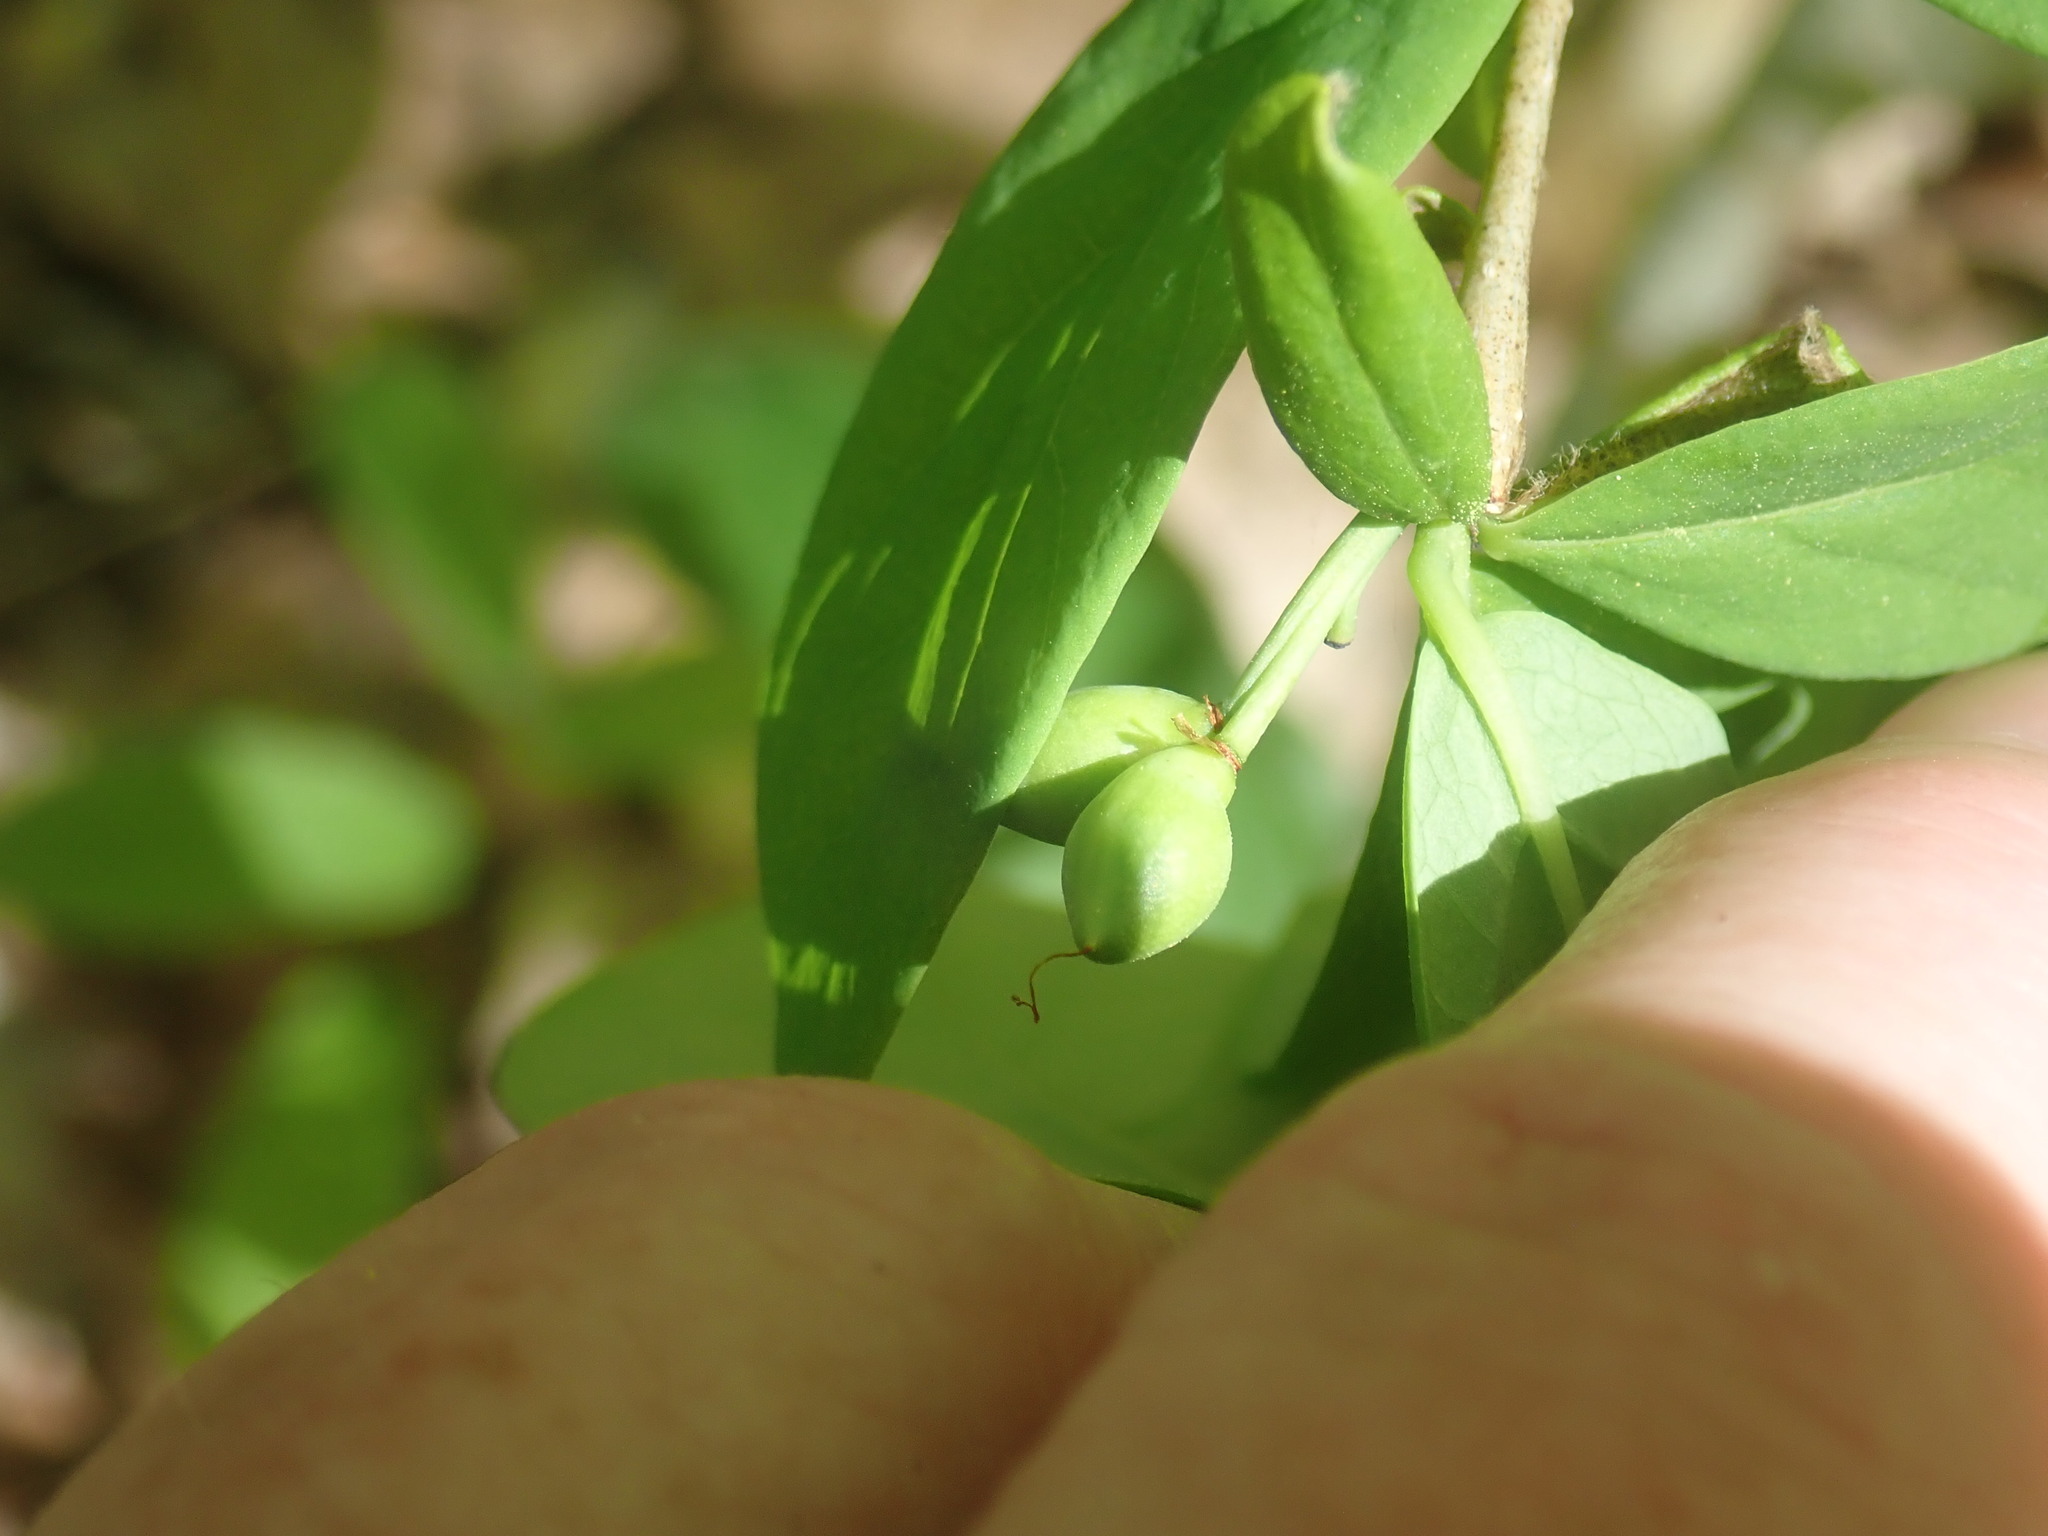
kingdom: Plantae
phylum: Tracheophyta
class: Magnoliopsida
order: Malvales
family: Thymelaeaceae
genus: Dirca
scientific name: Dirca palustris
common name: Leatherwood
